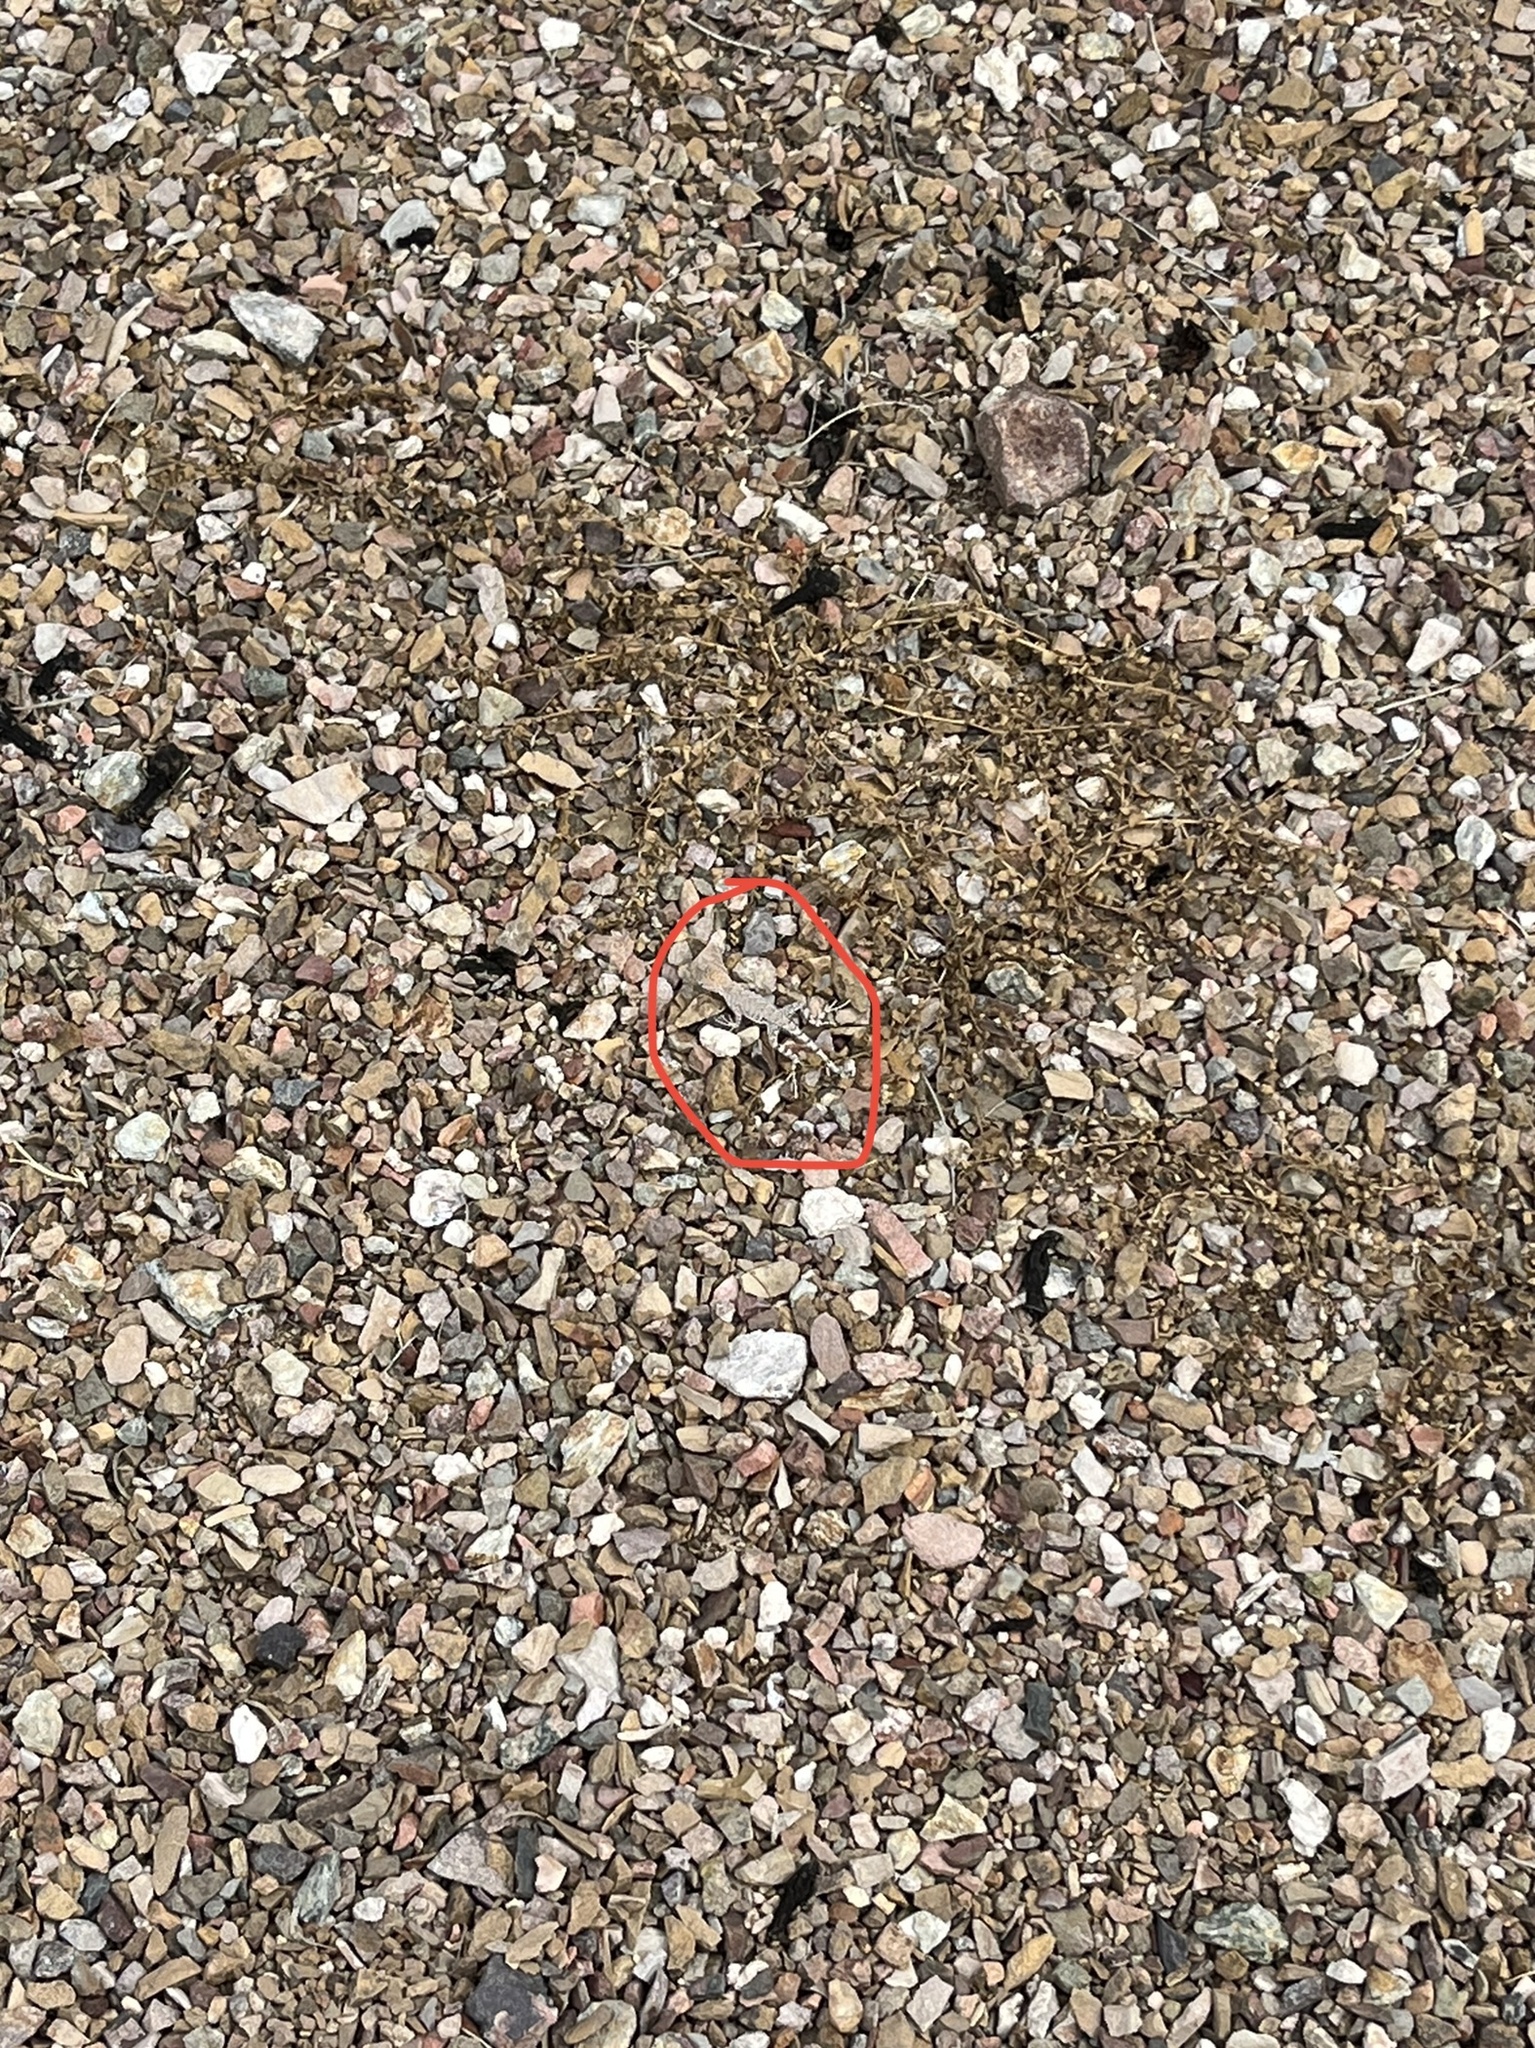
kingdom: Animalia
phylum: Chordata
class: Squamata
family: Phrynosomatidae
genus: Cophosaurus
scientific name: Cophosaurus texanus
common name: Greater earless lizard
